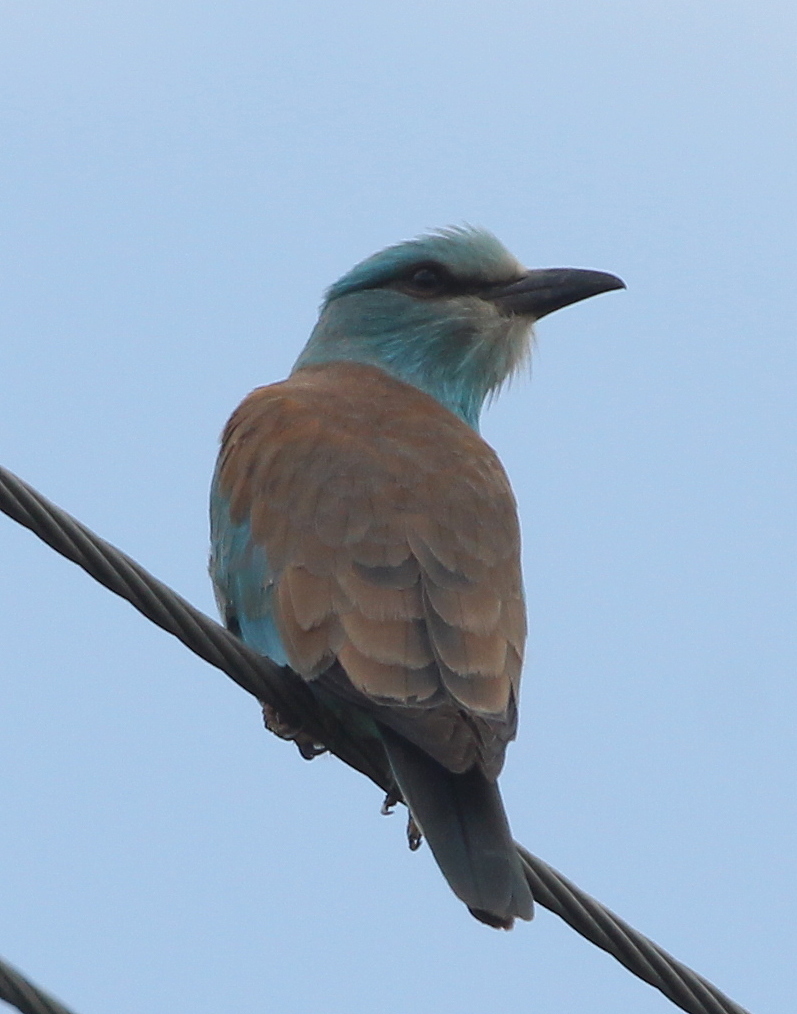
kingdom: Animalia
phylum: Chordata
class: Aves
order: Coraciiformes
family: Coraciidae
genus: Coracias
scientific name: Coracias garrulus
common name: European roller
